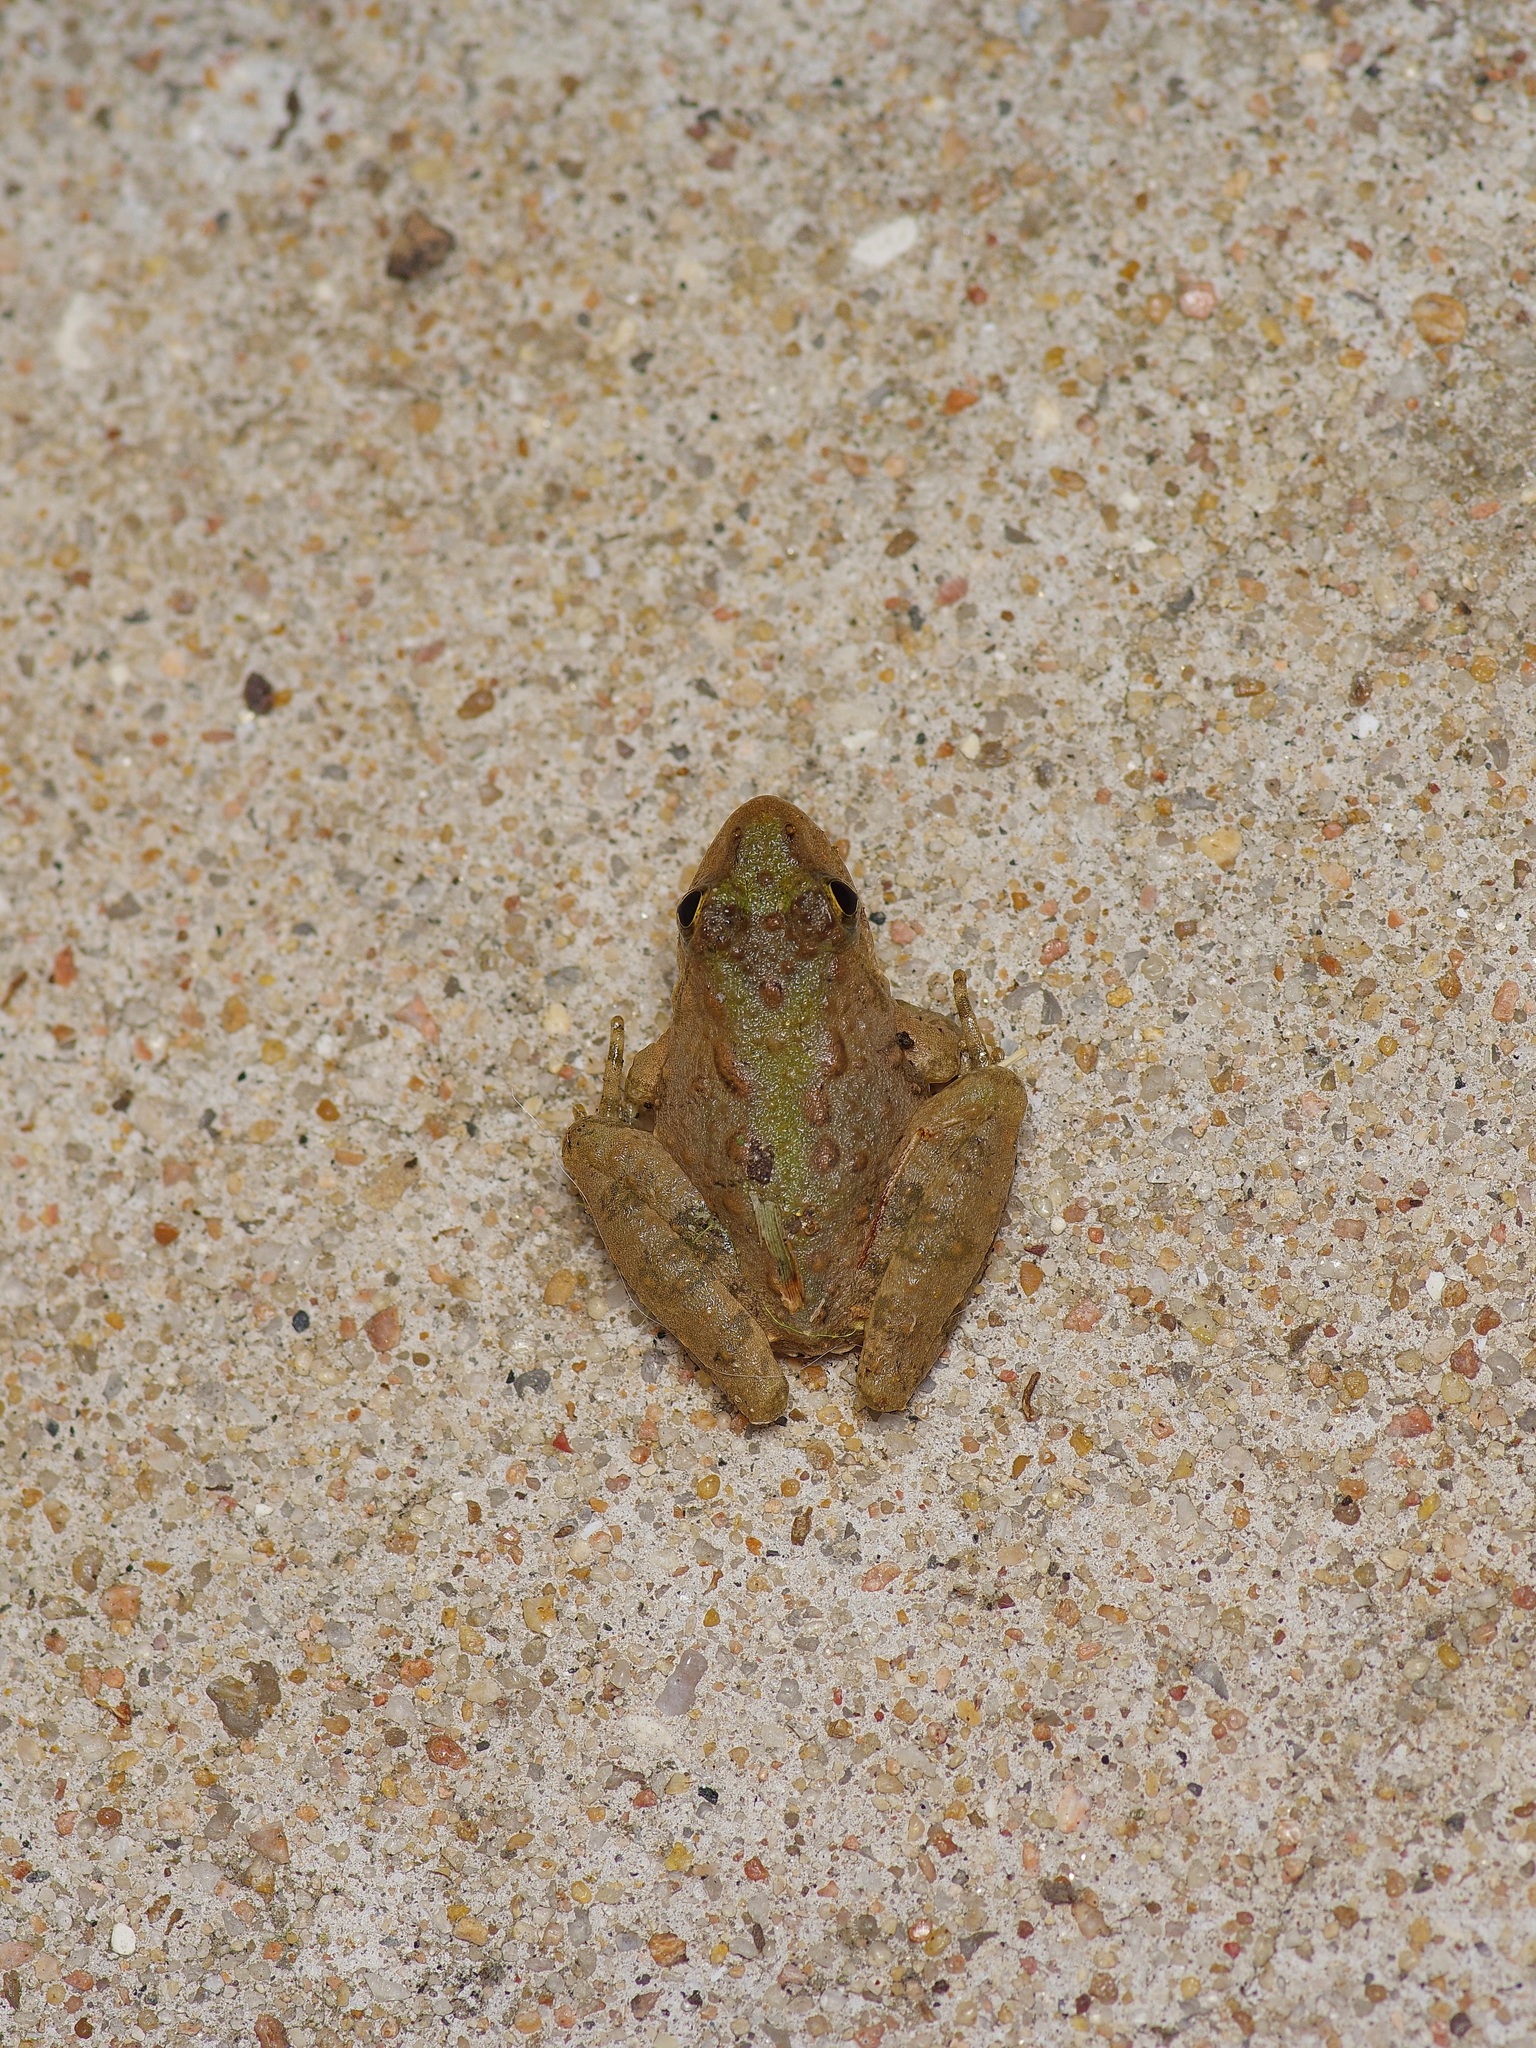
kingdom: Animalia
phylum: Chordata
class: Amphibia
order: Anura
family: Hylidae
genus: Acris
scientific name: Acris blanchardi
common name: Blanchard's cricket frog
